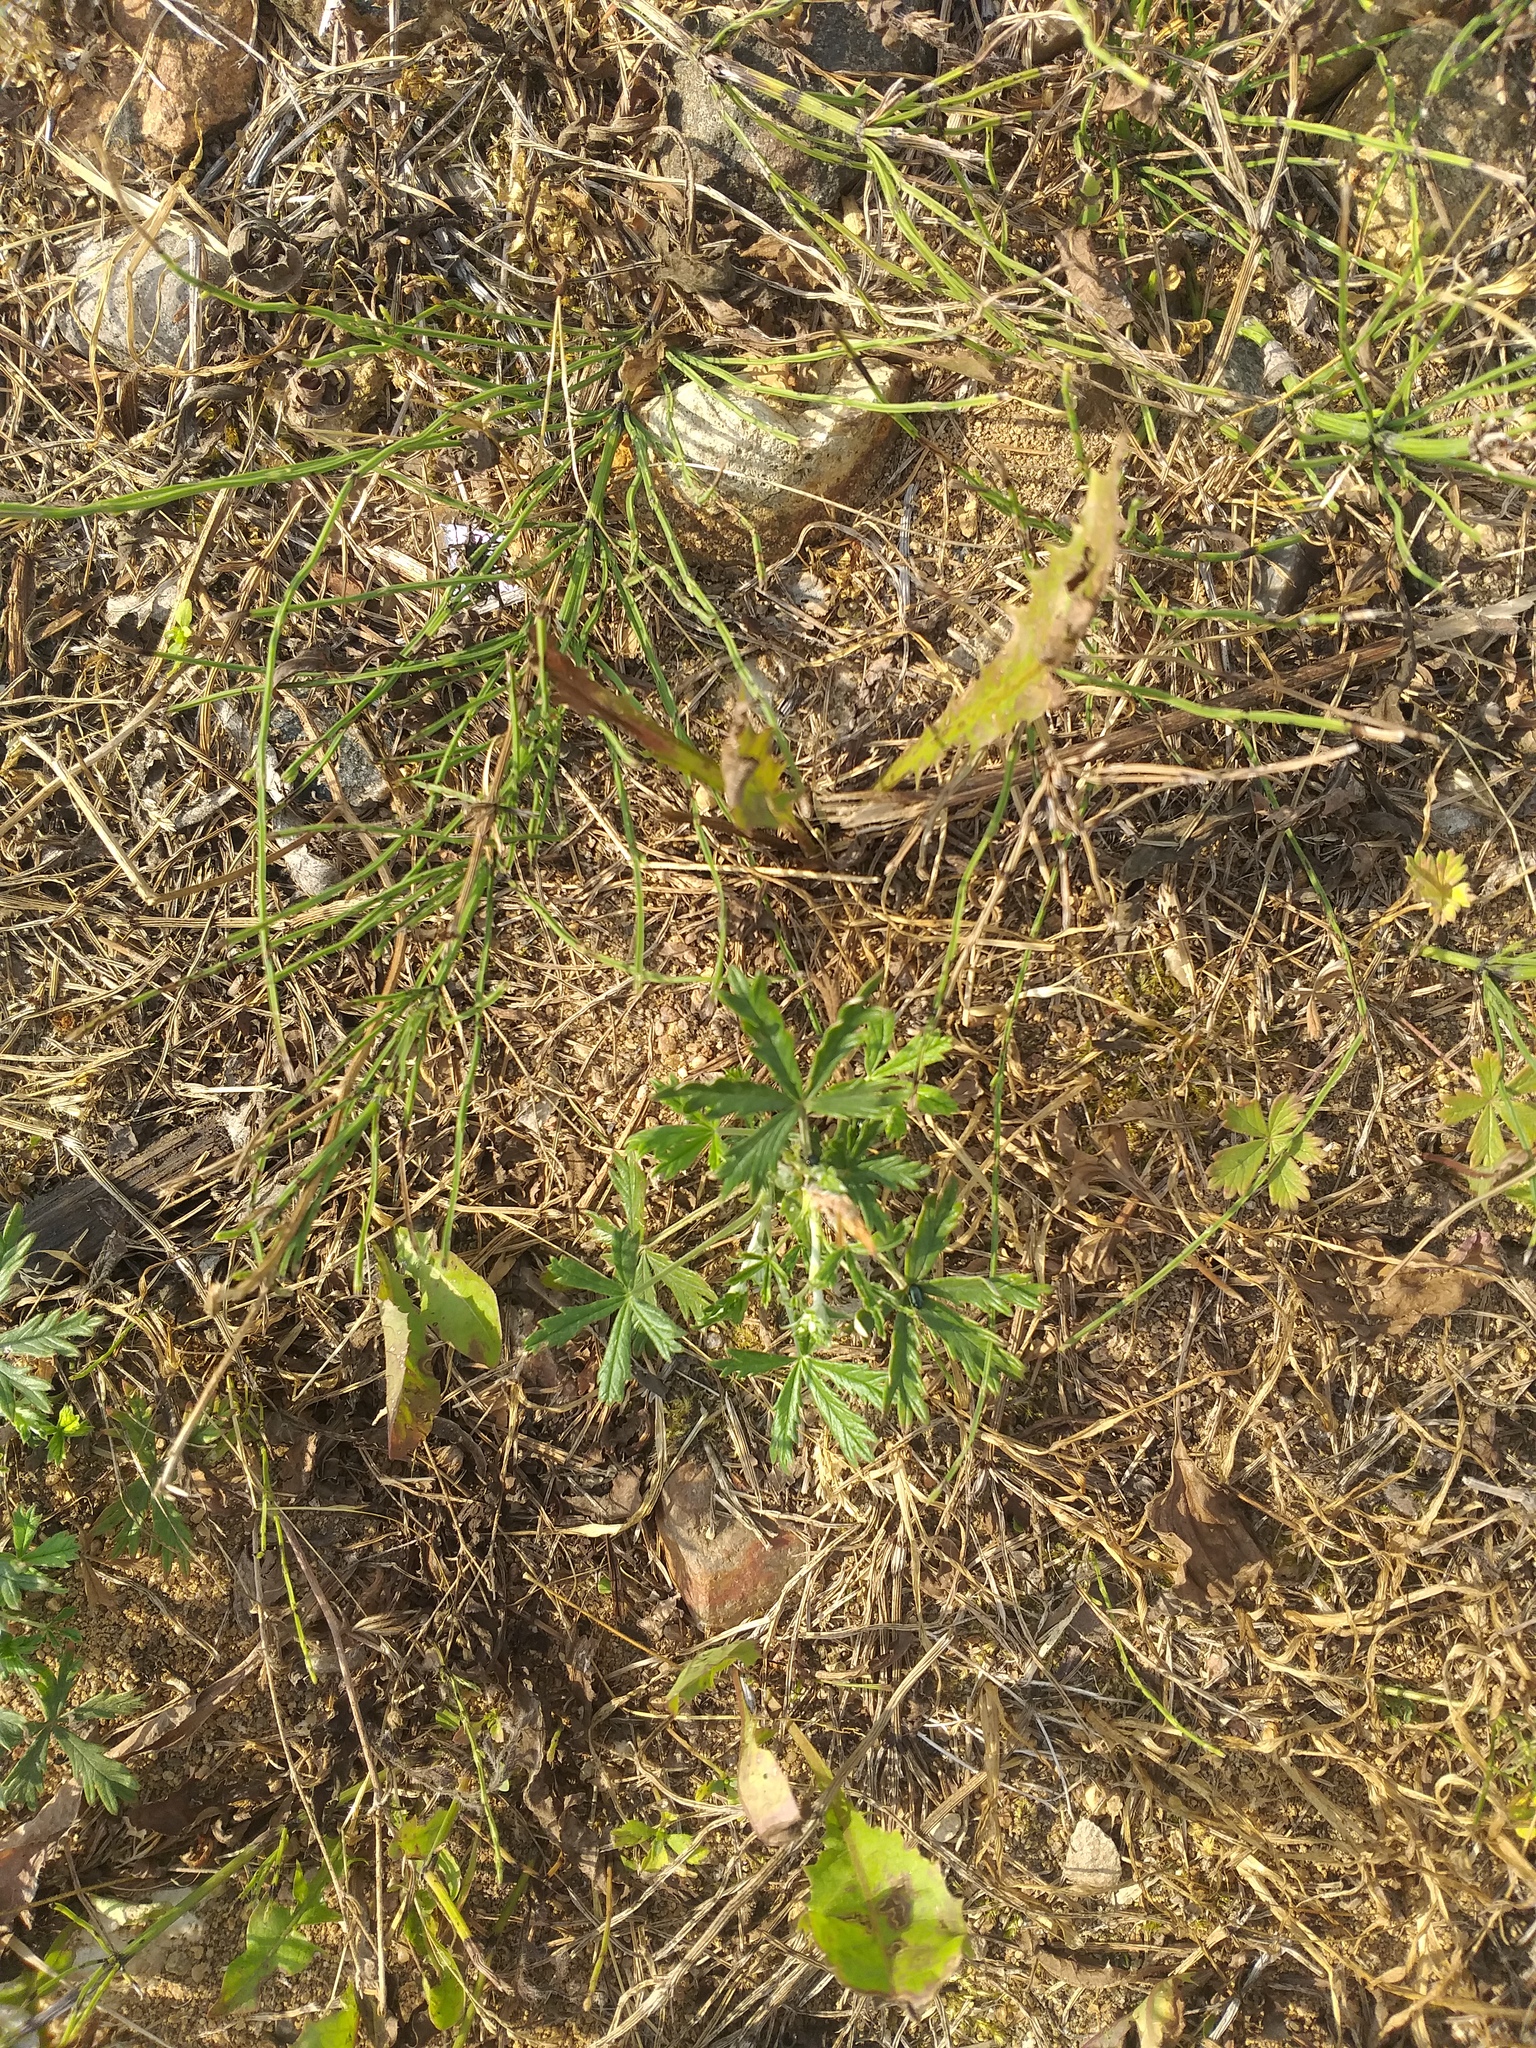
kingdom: Plantae
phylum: Tracheophyta
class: Magnoliopsida
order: Rosales
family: Rosaceae
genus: Potentilla
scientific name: Potentilla argentea
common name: Hoary cinquefoil
